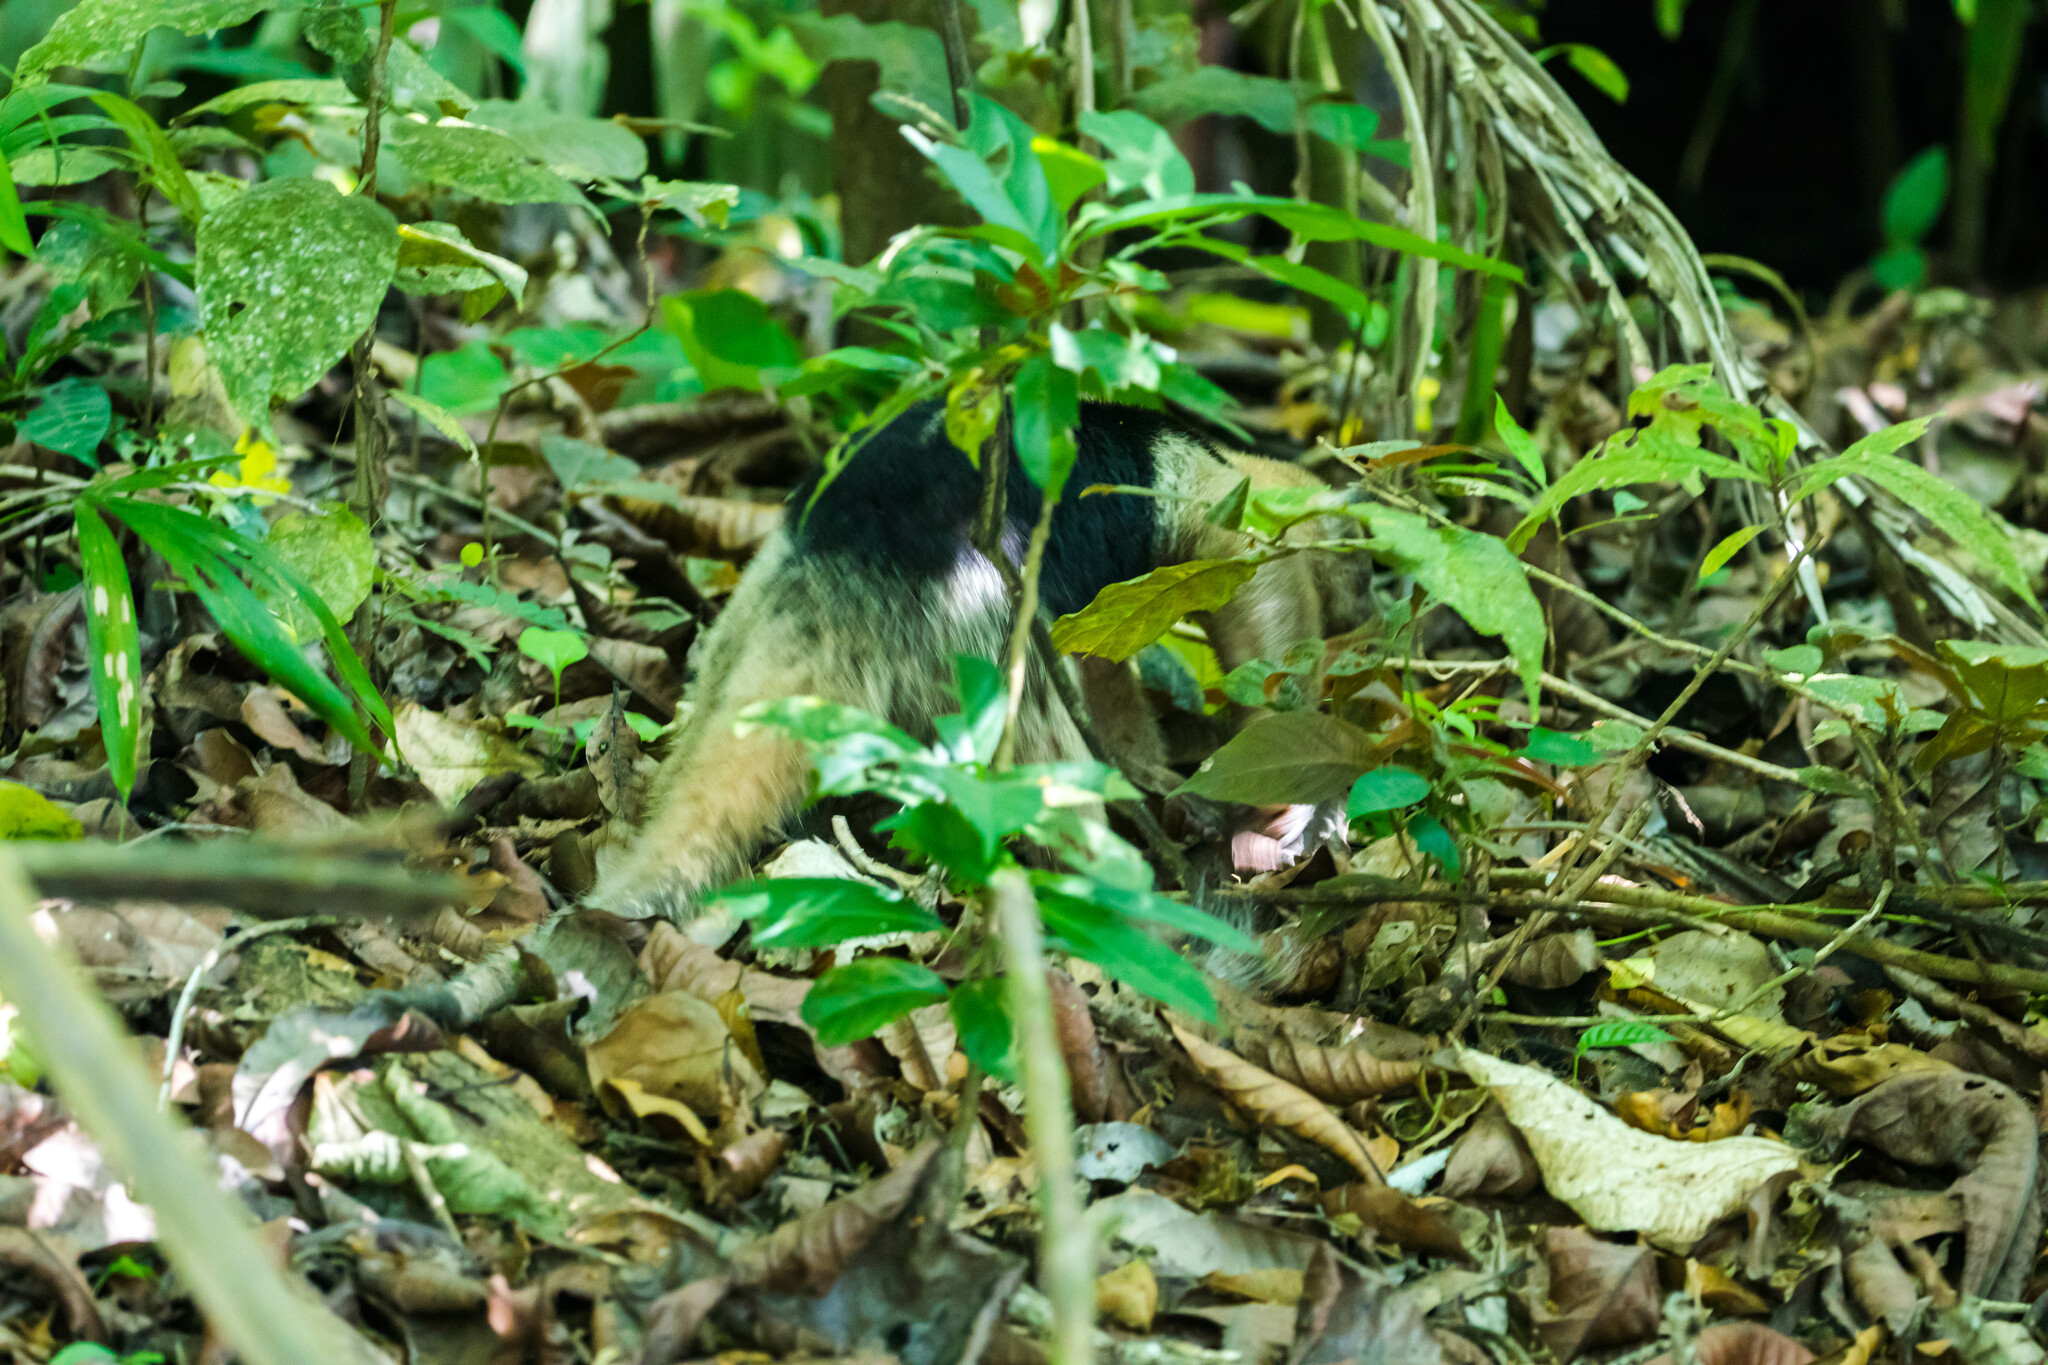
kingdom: Animalia
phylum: Chordata
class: Mammalia
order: Pilosa
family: Myrmecophagidae
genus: Tamandua
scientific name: Tamandua mexicana
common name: Northern tamandua
